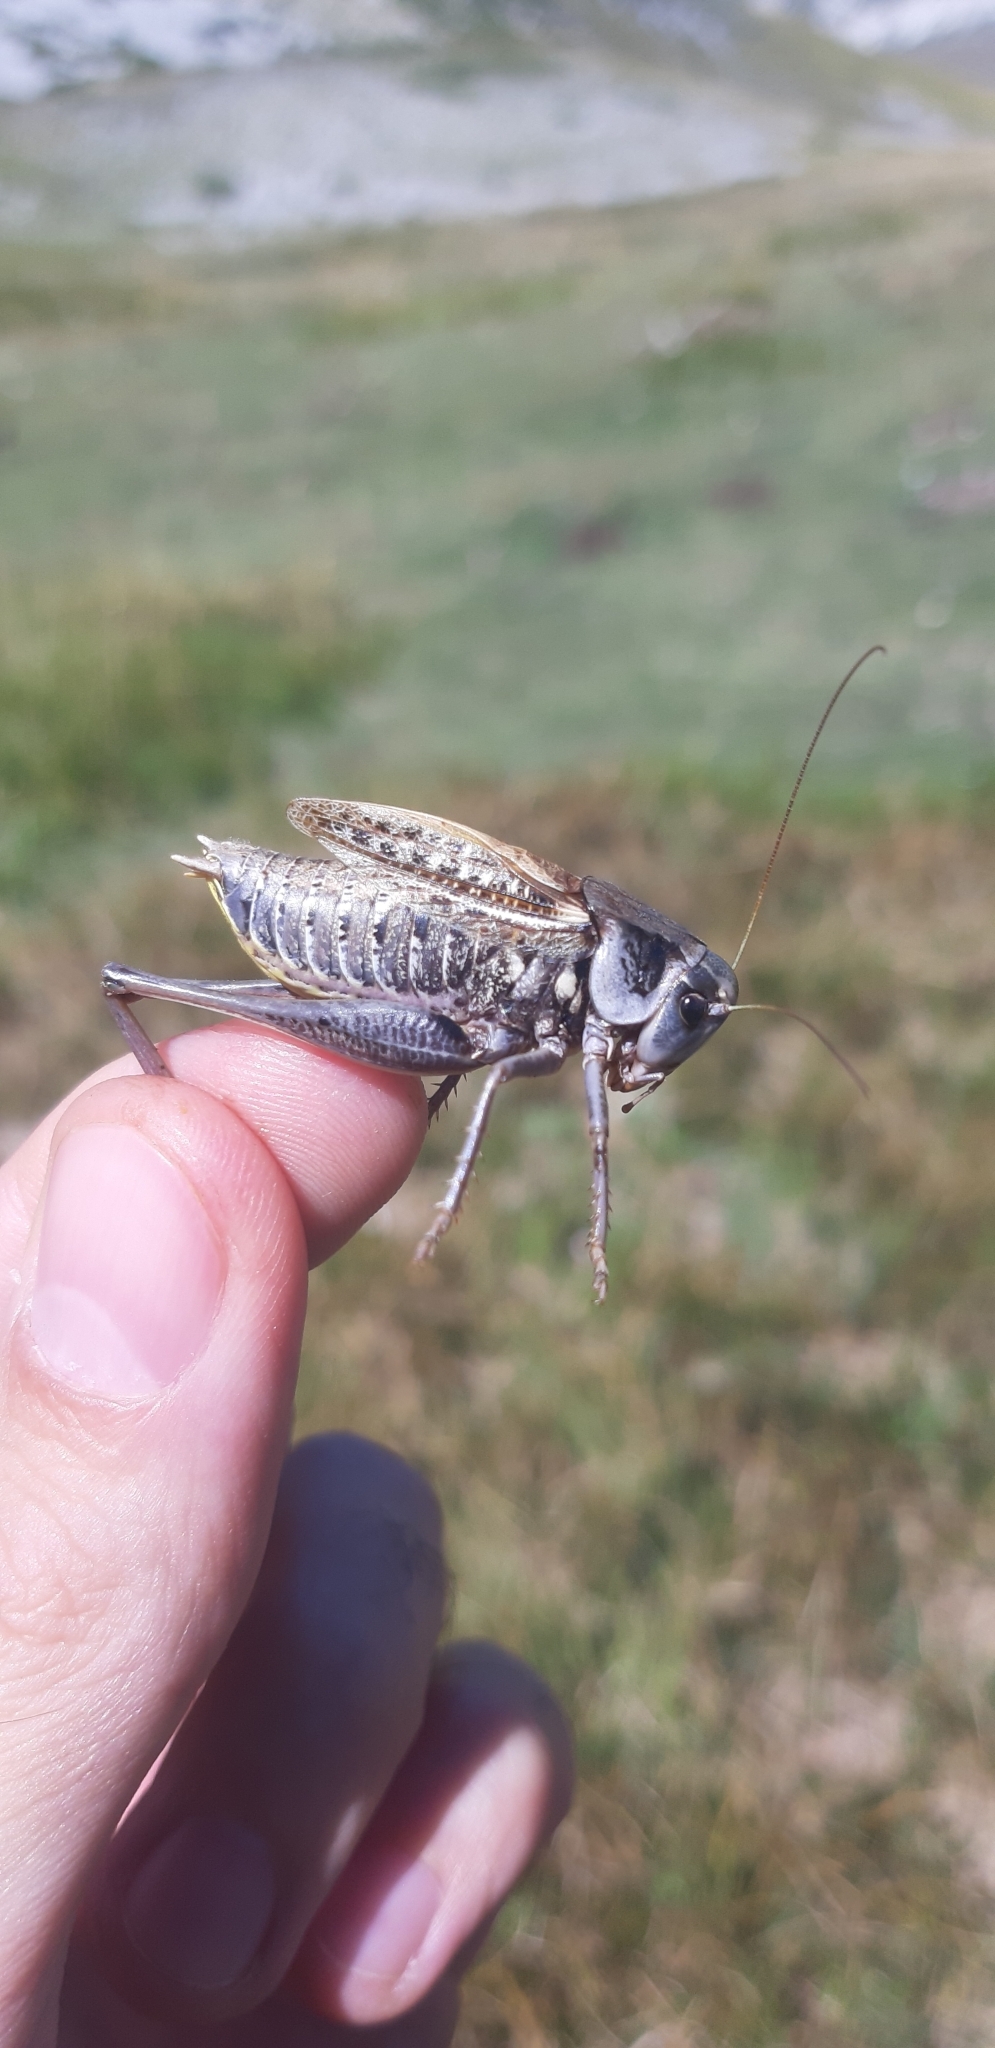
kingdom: Animalia
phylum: Arthropoda
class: Insecta
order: Orthoptera
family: Tettigoniidae
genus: Decticus
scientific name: Decticus aprutianus
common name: Abruzzo wart-biter
